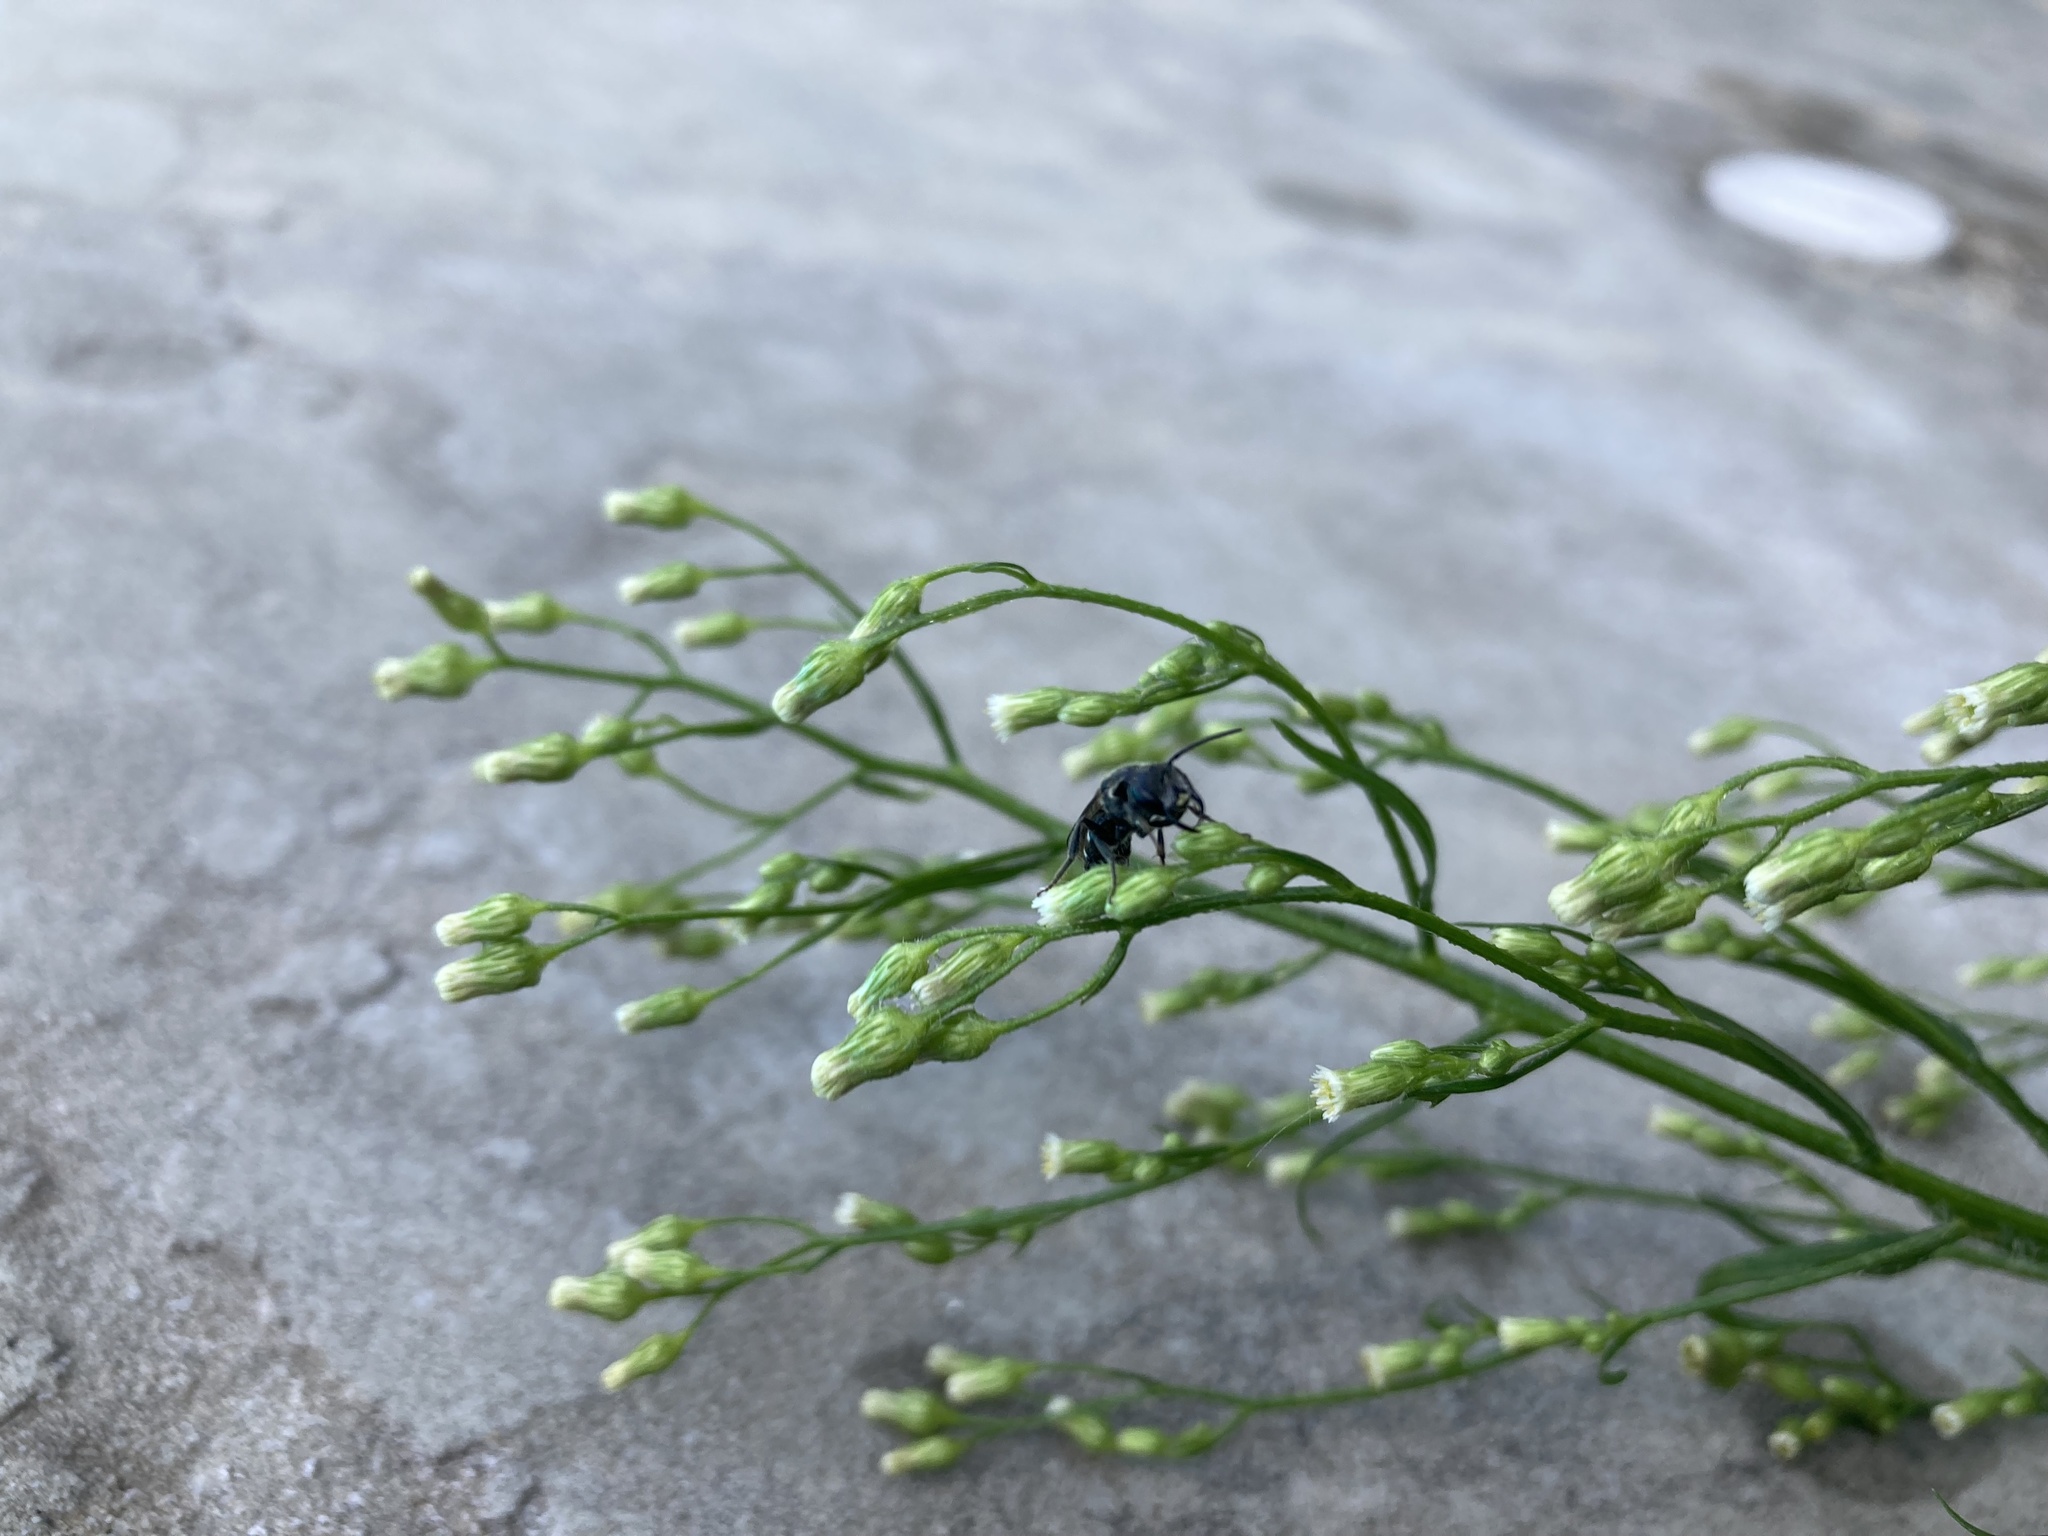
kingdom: Animalia
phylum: Arthropoda
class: Insecta
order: Hymenoptera
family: Halictidae
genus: Lasioglossum
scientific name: Lasioglossum coriaceum
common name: Leathery sweat bee
